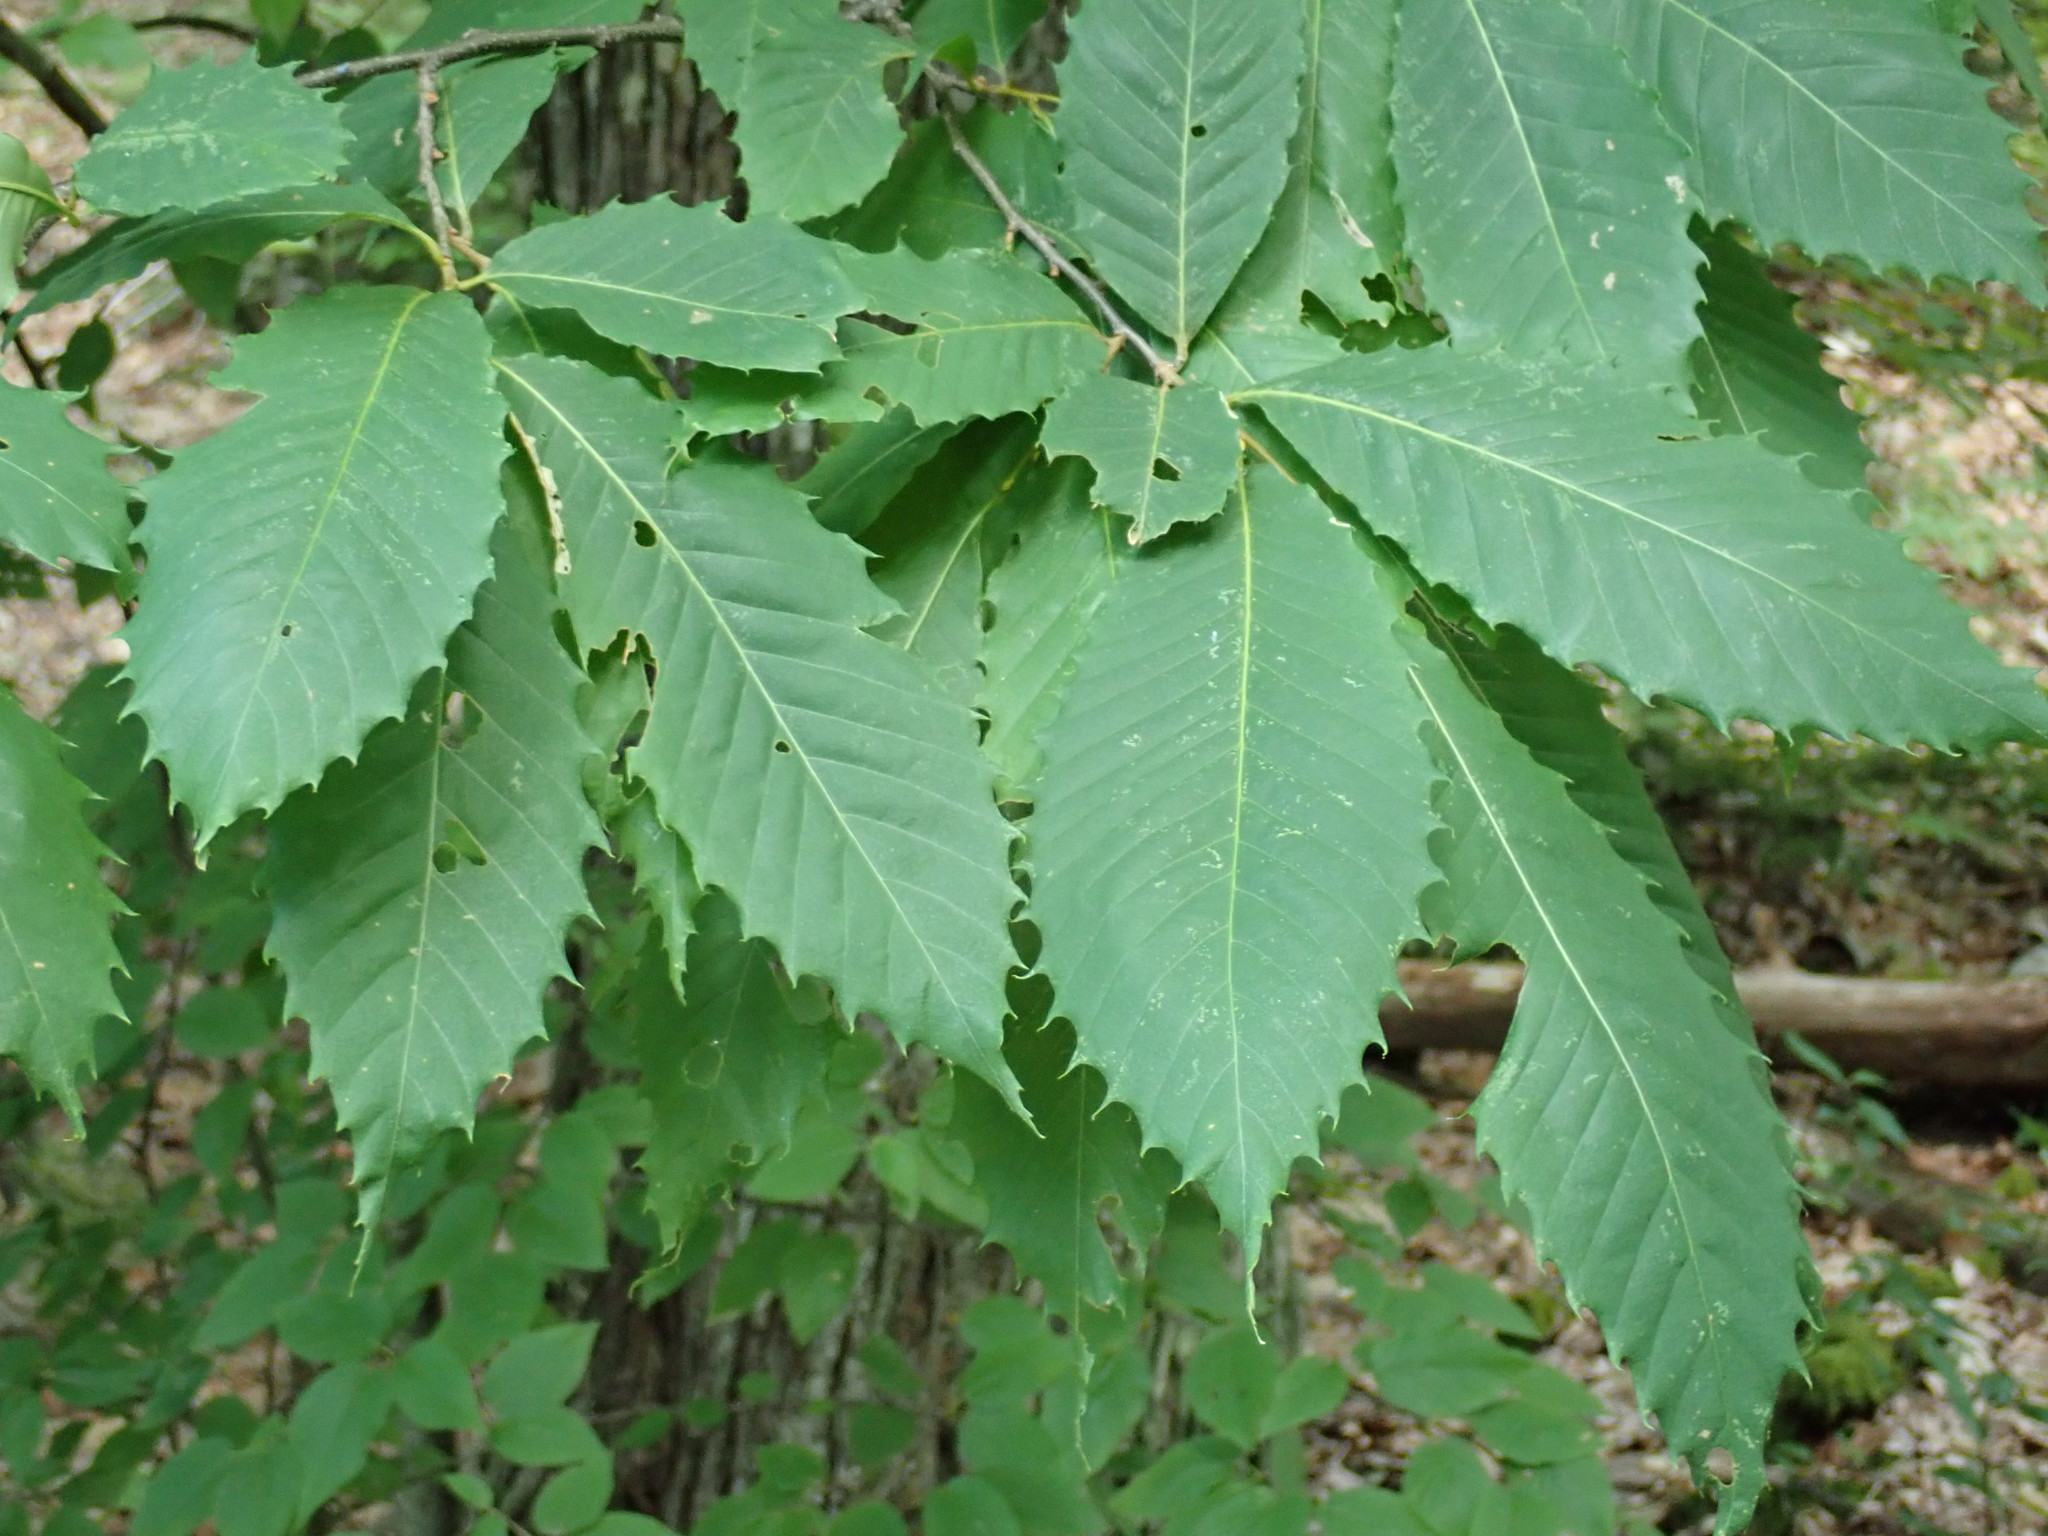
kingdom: Plantae
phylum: Tracheophyta
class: Magnoliopsida
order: Fagales
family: Fagaceae
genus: Castanea
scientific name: Castanea dentata
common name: American chestnut
